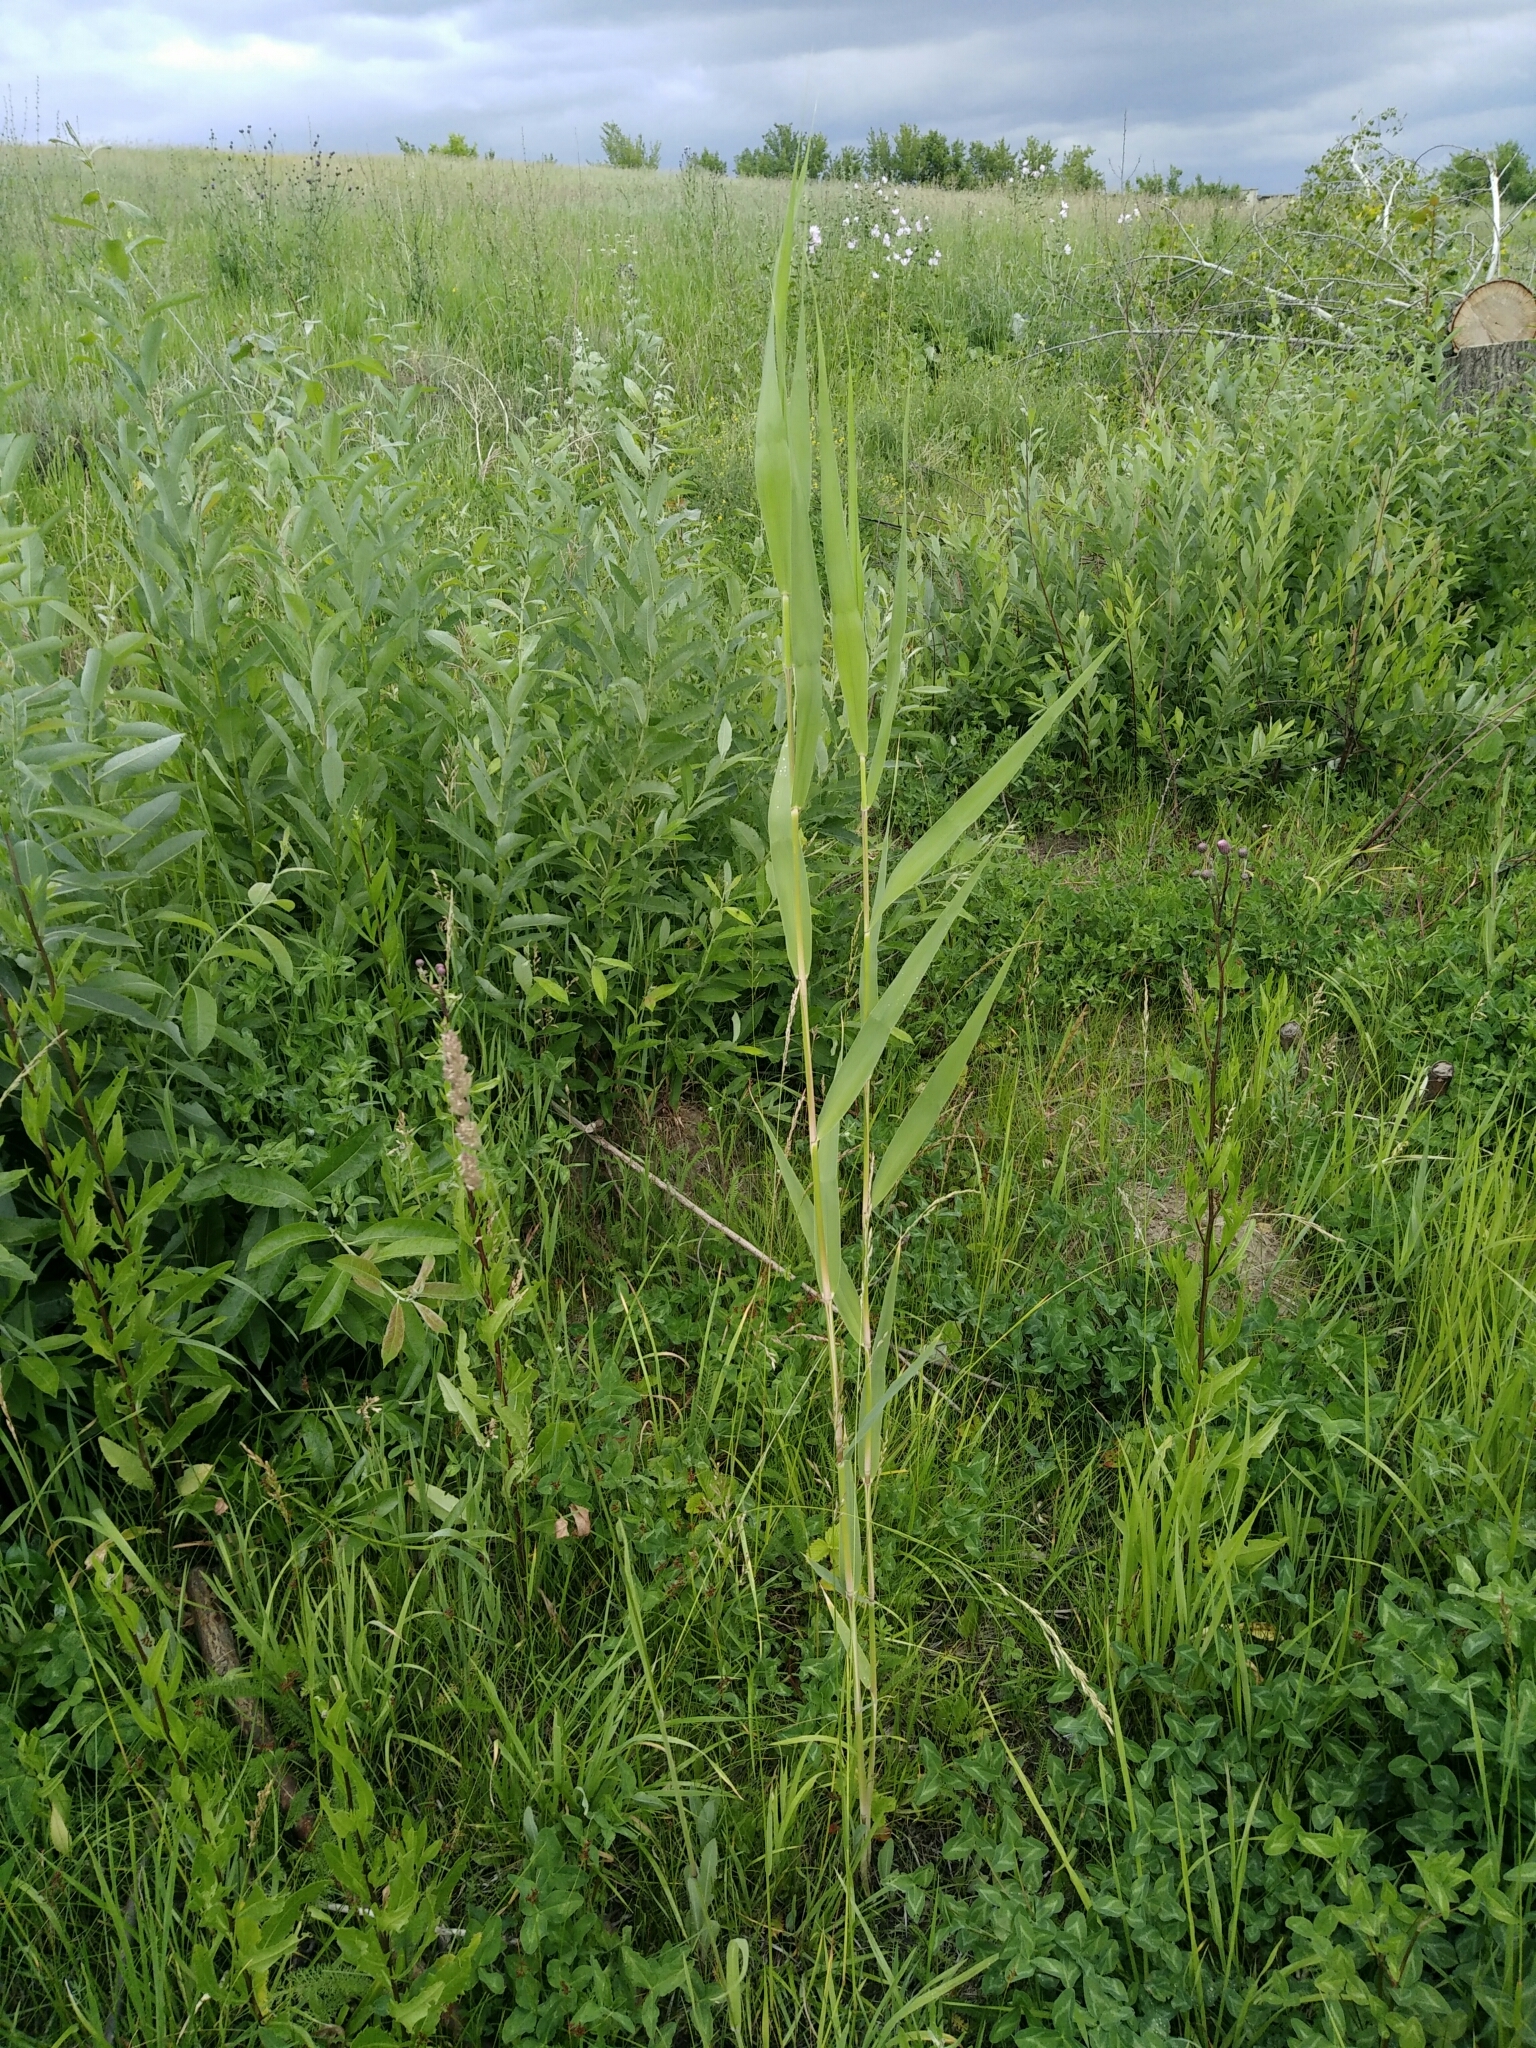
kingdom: Plantae
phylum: Tracheophyta
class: Liliopsida
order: Poales
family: Poaceae
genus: Phragmites
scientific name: Phragmites australis
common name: Common reed
